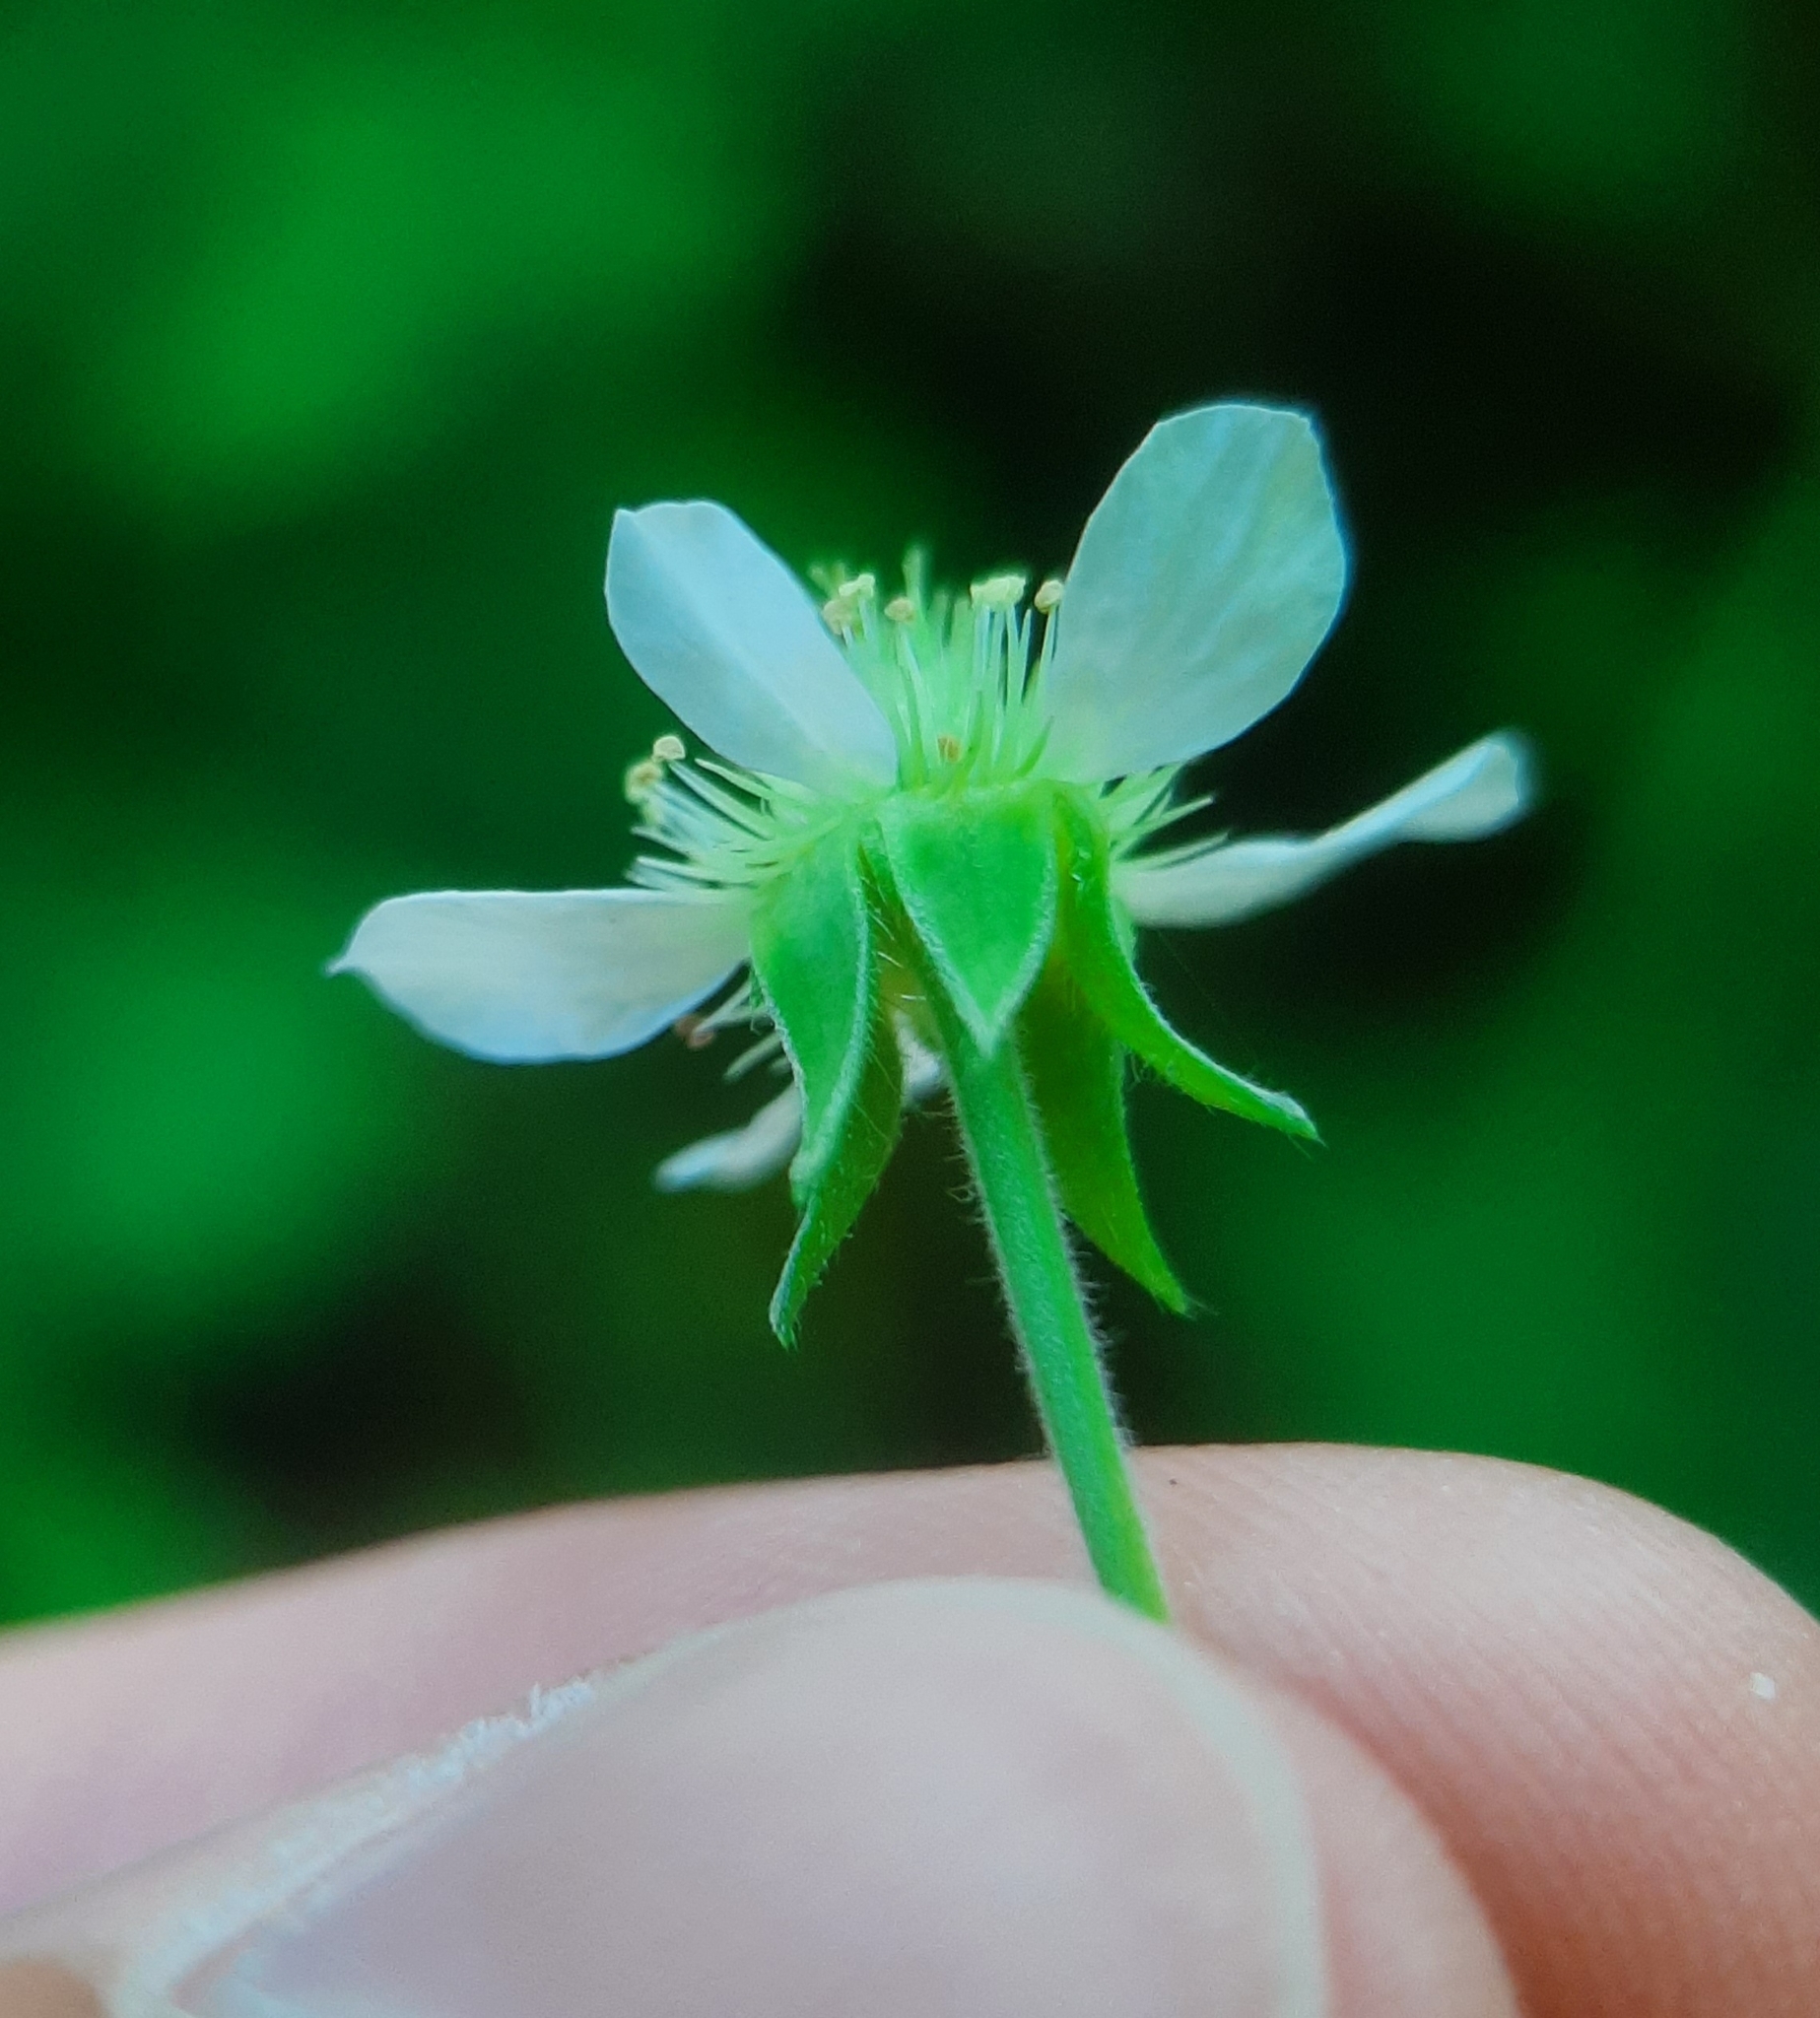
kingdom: Plantae
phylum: Tracheophyta
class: Magnoliopsida
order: Rosales
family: Rosaceae
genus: Geum
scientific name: Geum canadense
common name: White avens
